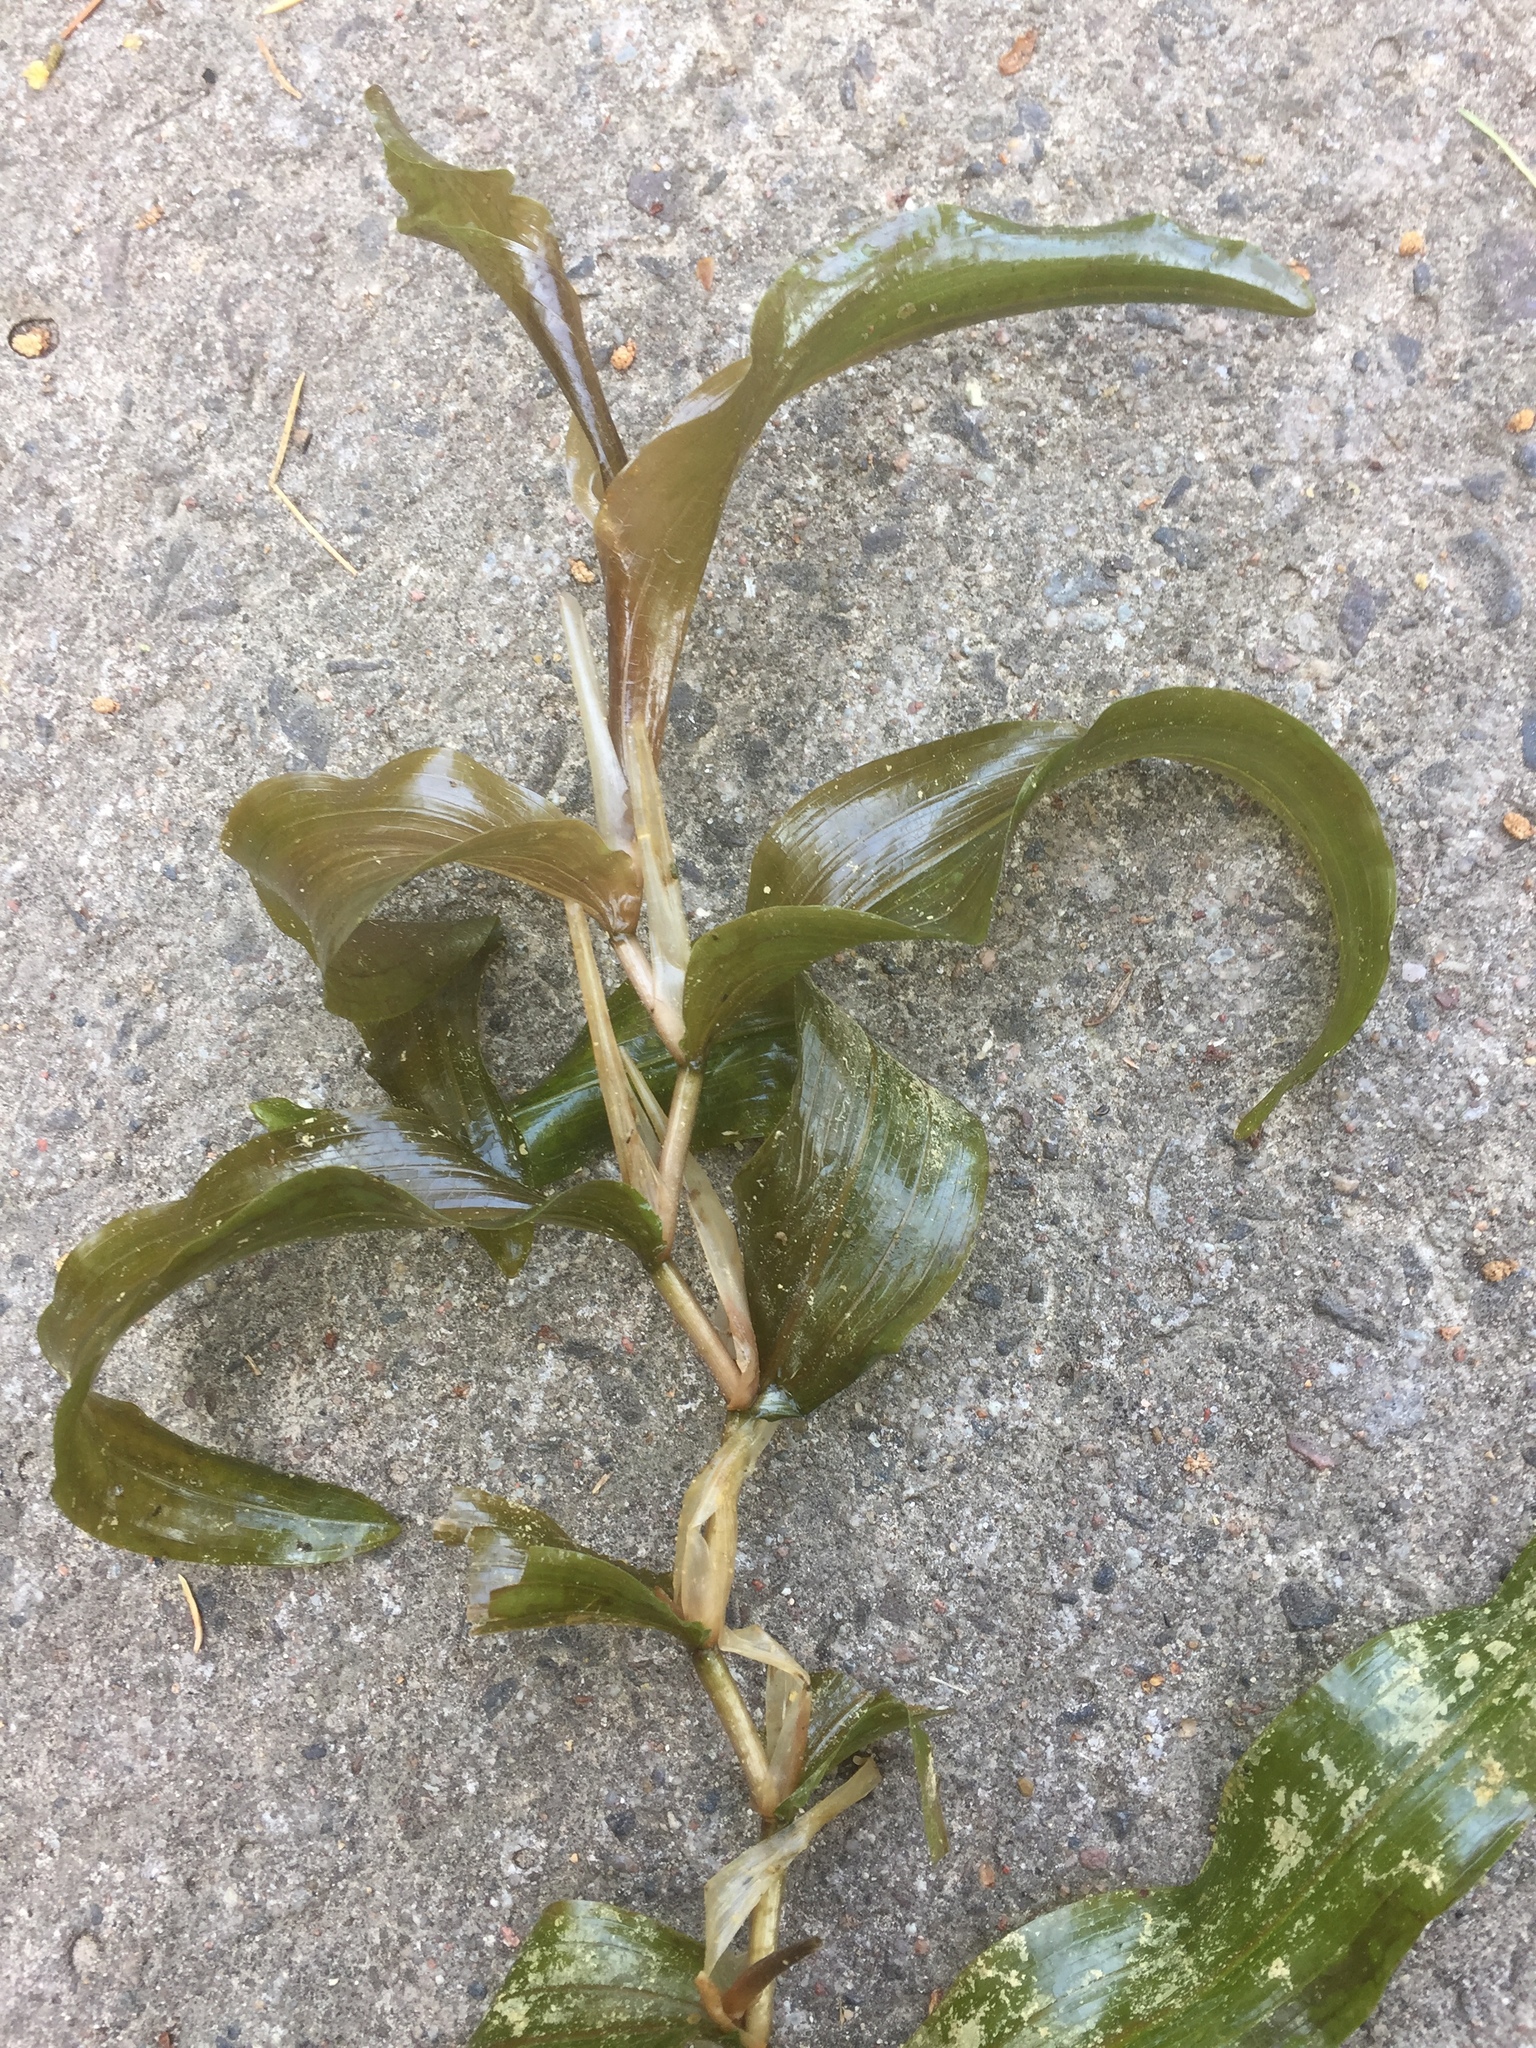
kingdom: Plantae
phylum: Tracheophyta
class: Liliopsida
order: Alismatales
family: Potamogetonaceae
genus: Potamogeton
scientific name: Potamogeton praelongus
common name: Long-stalked pondweed
